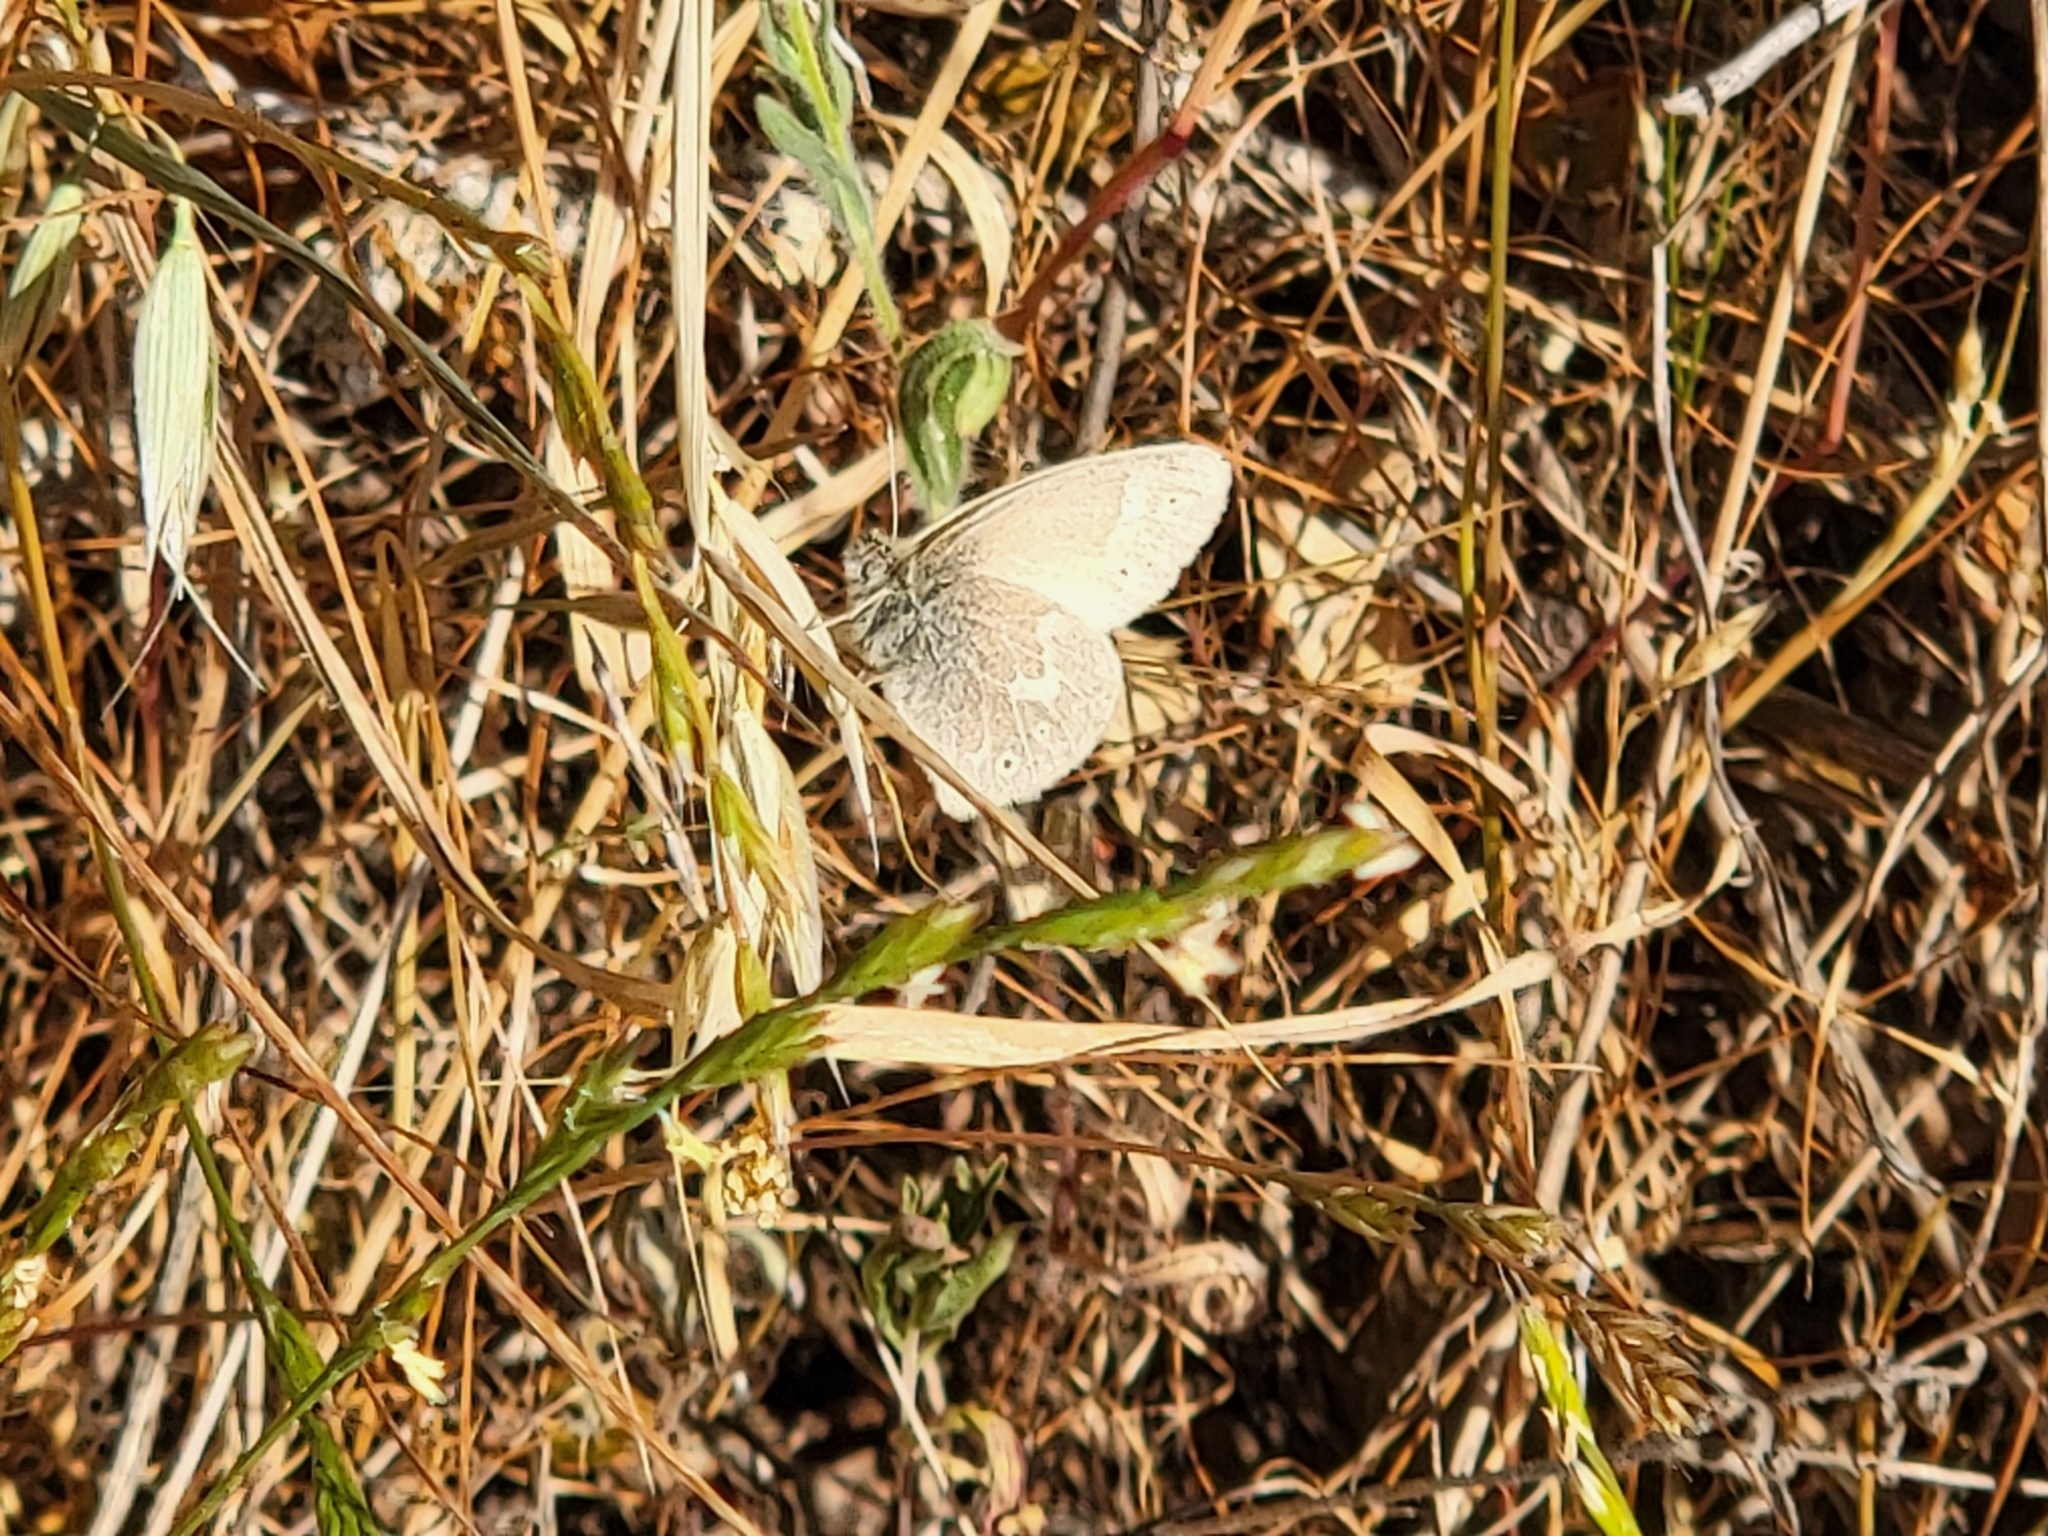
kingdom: Animalia
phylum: Arthropoda
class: Insecta
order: Lepidoptera
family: Nymphalidae
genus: Coenonympha
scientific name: Coenonympha california
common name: Common ringlet
